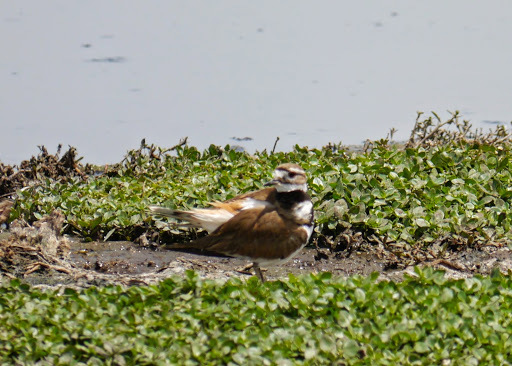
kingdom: Animalia
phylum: Chordata
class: Aves
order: Charadriiformes
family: Charadriidae
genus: Charadrius
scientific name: Charadrius vociferus
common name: Killdeer
